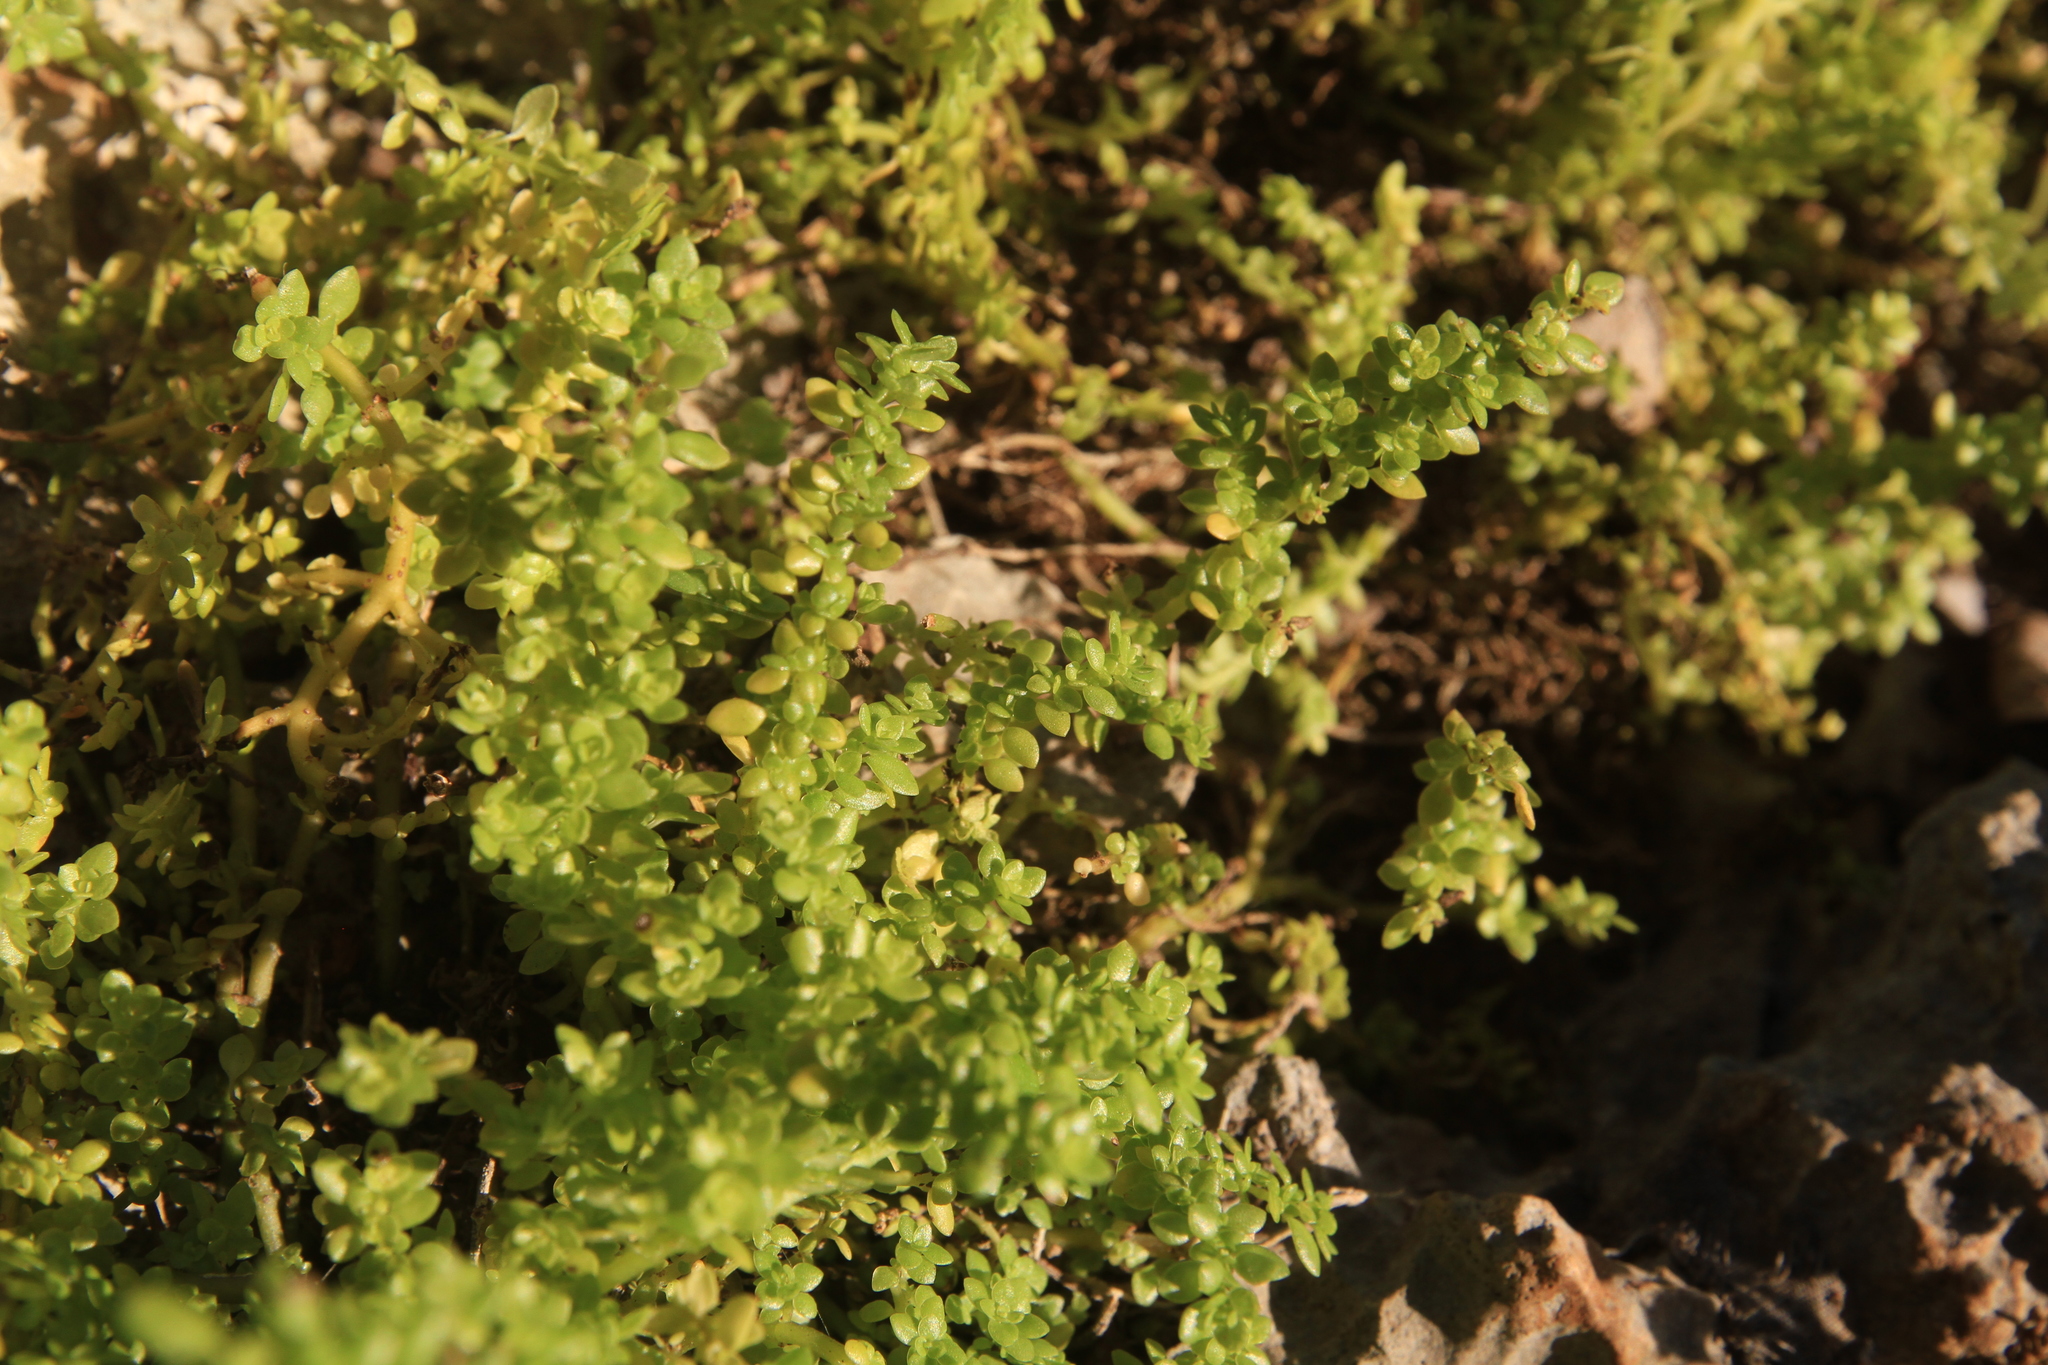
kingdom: Plantae
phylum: Tracheophyta
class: Magnoliopsida
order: Rosales
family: Urticaceae
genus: Pilea
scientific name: Pilea microphylla
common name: Artillery-plant
